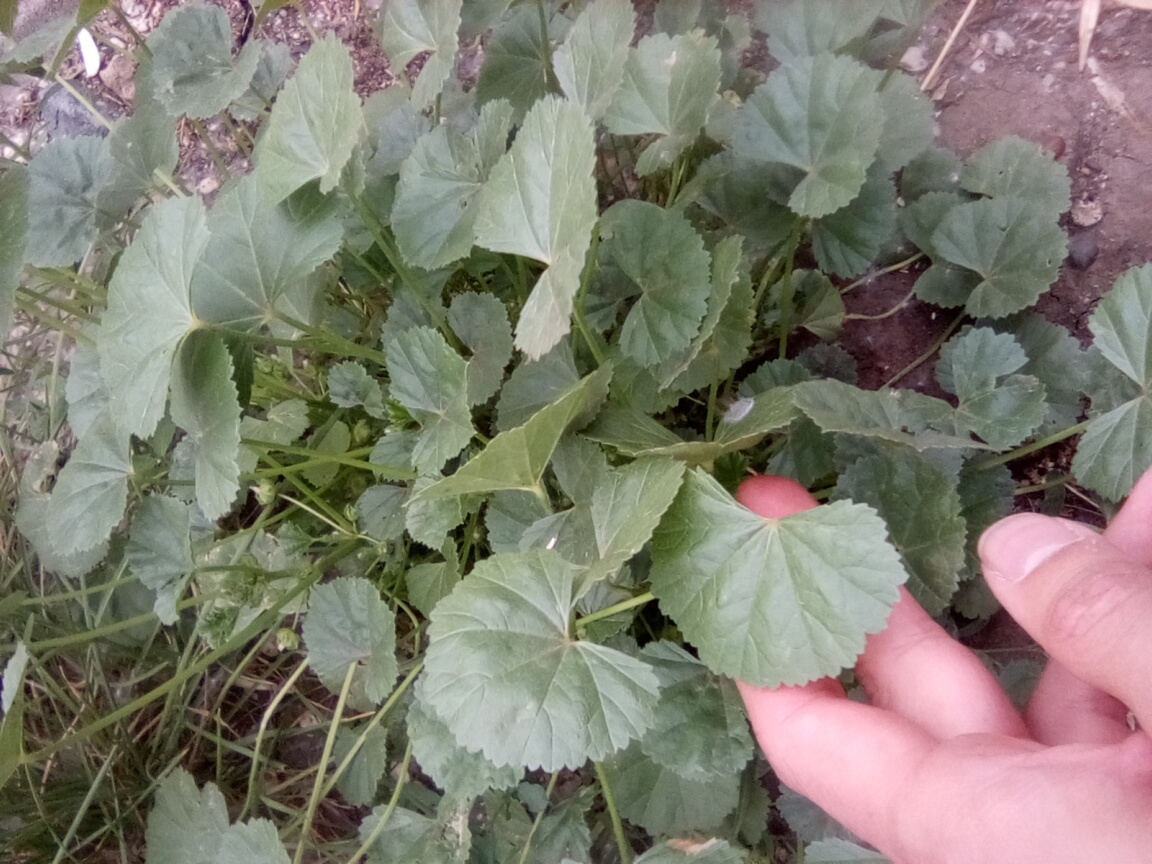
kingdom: Plantae
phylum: Tracheophyta
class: Magnoliopsida
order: Malvales
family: Malvaceae
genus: Malva
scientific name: Malva pusilla
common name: Small mallow
